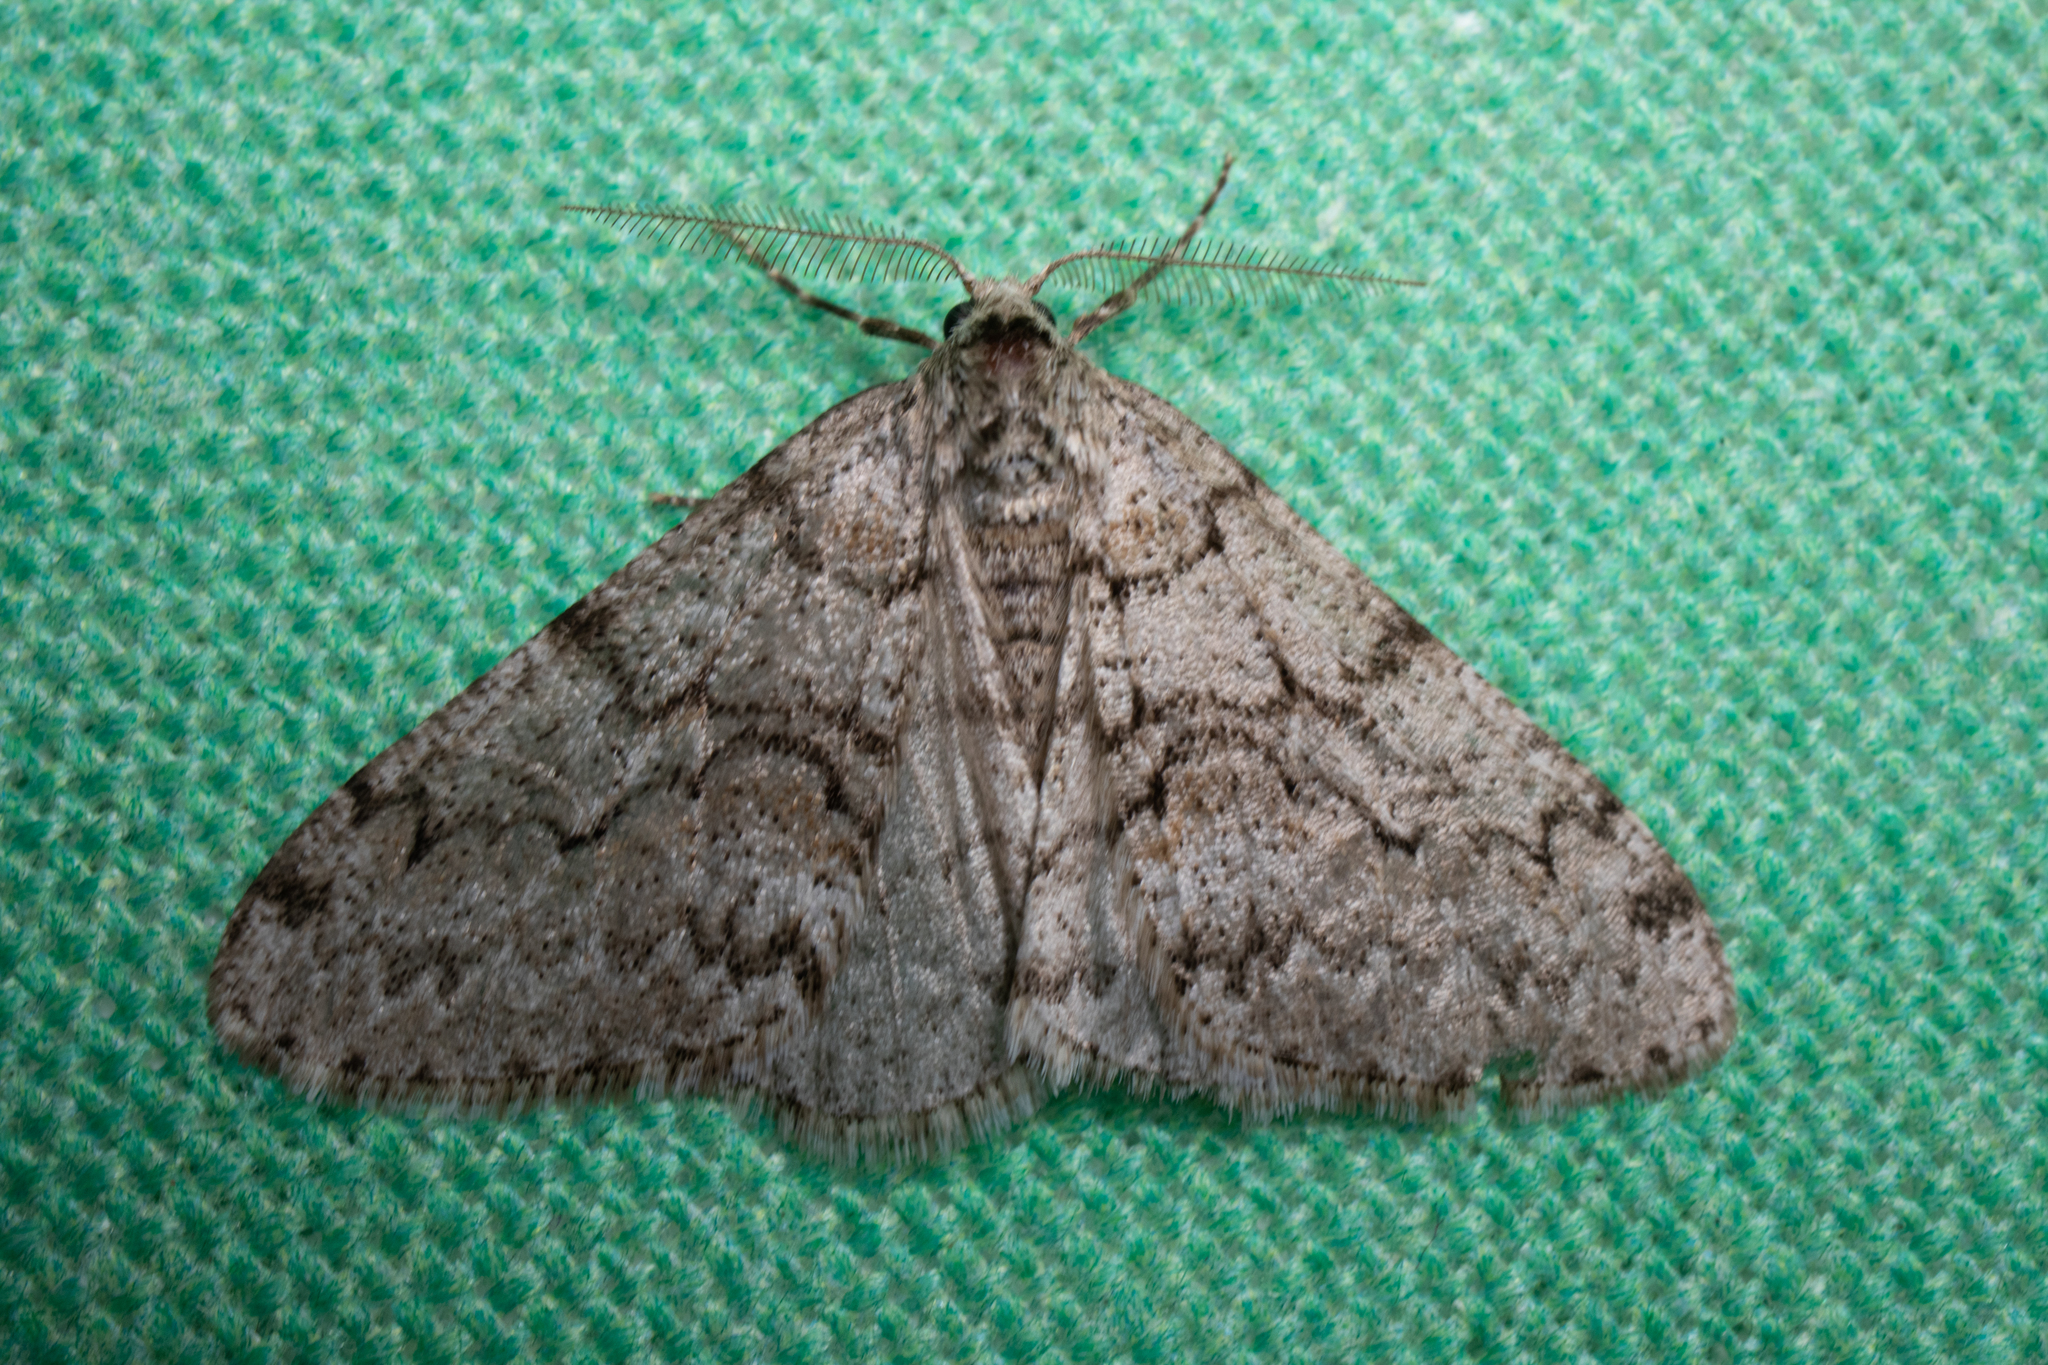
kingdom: Animalia
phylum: Arthropoda
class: Insecta
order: Lepidoptera
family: Geometridae
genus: Phigalia
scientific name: Phigalia denticulata
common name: Toothed phigalia
